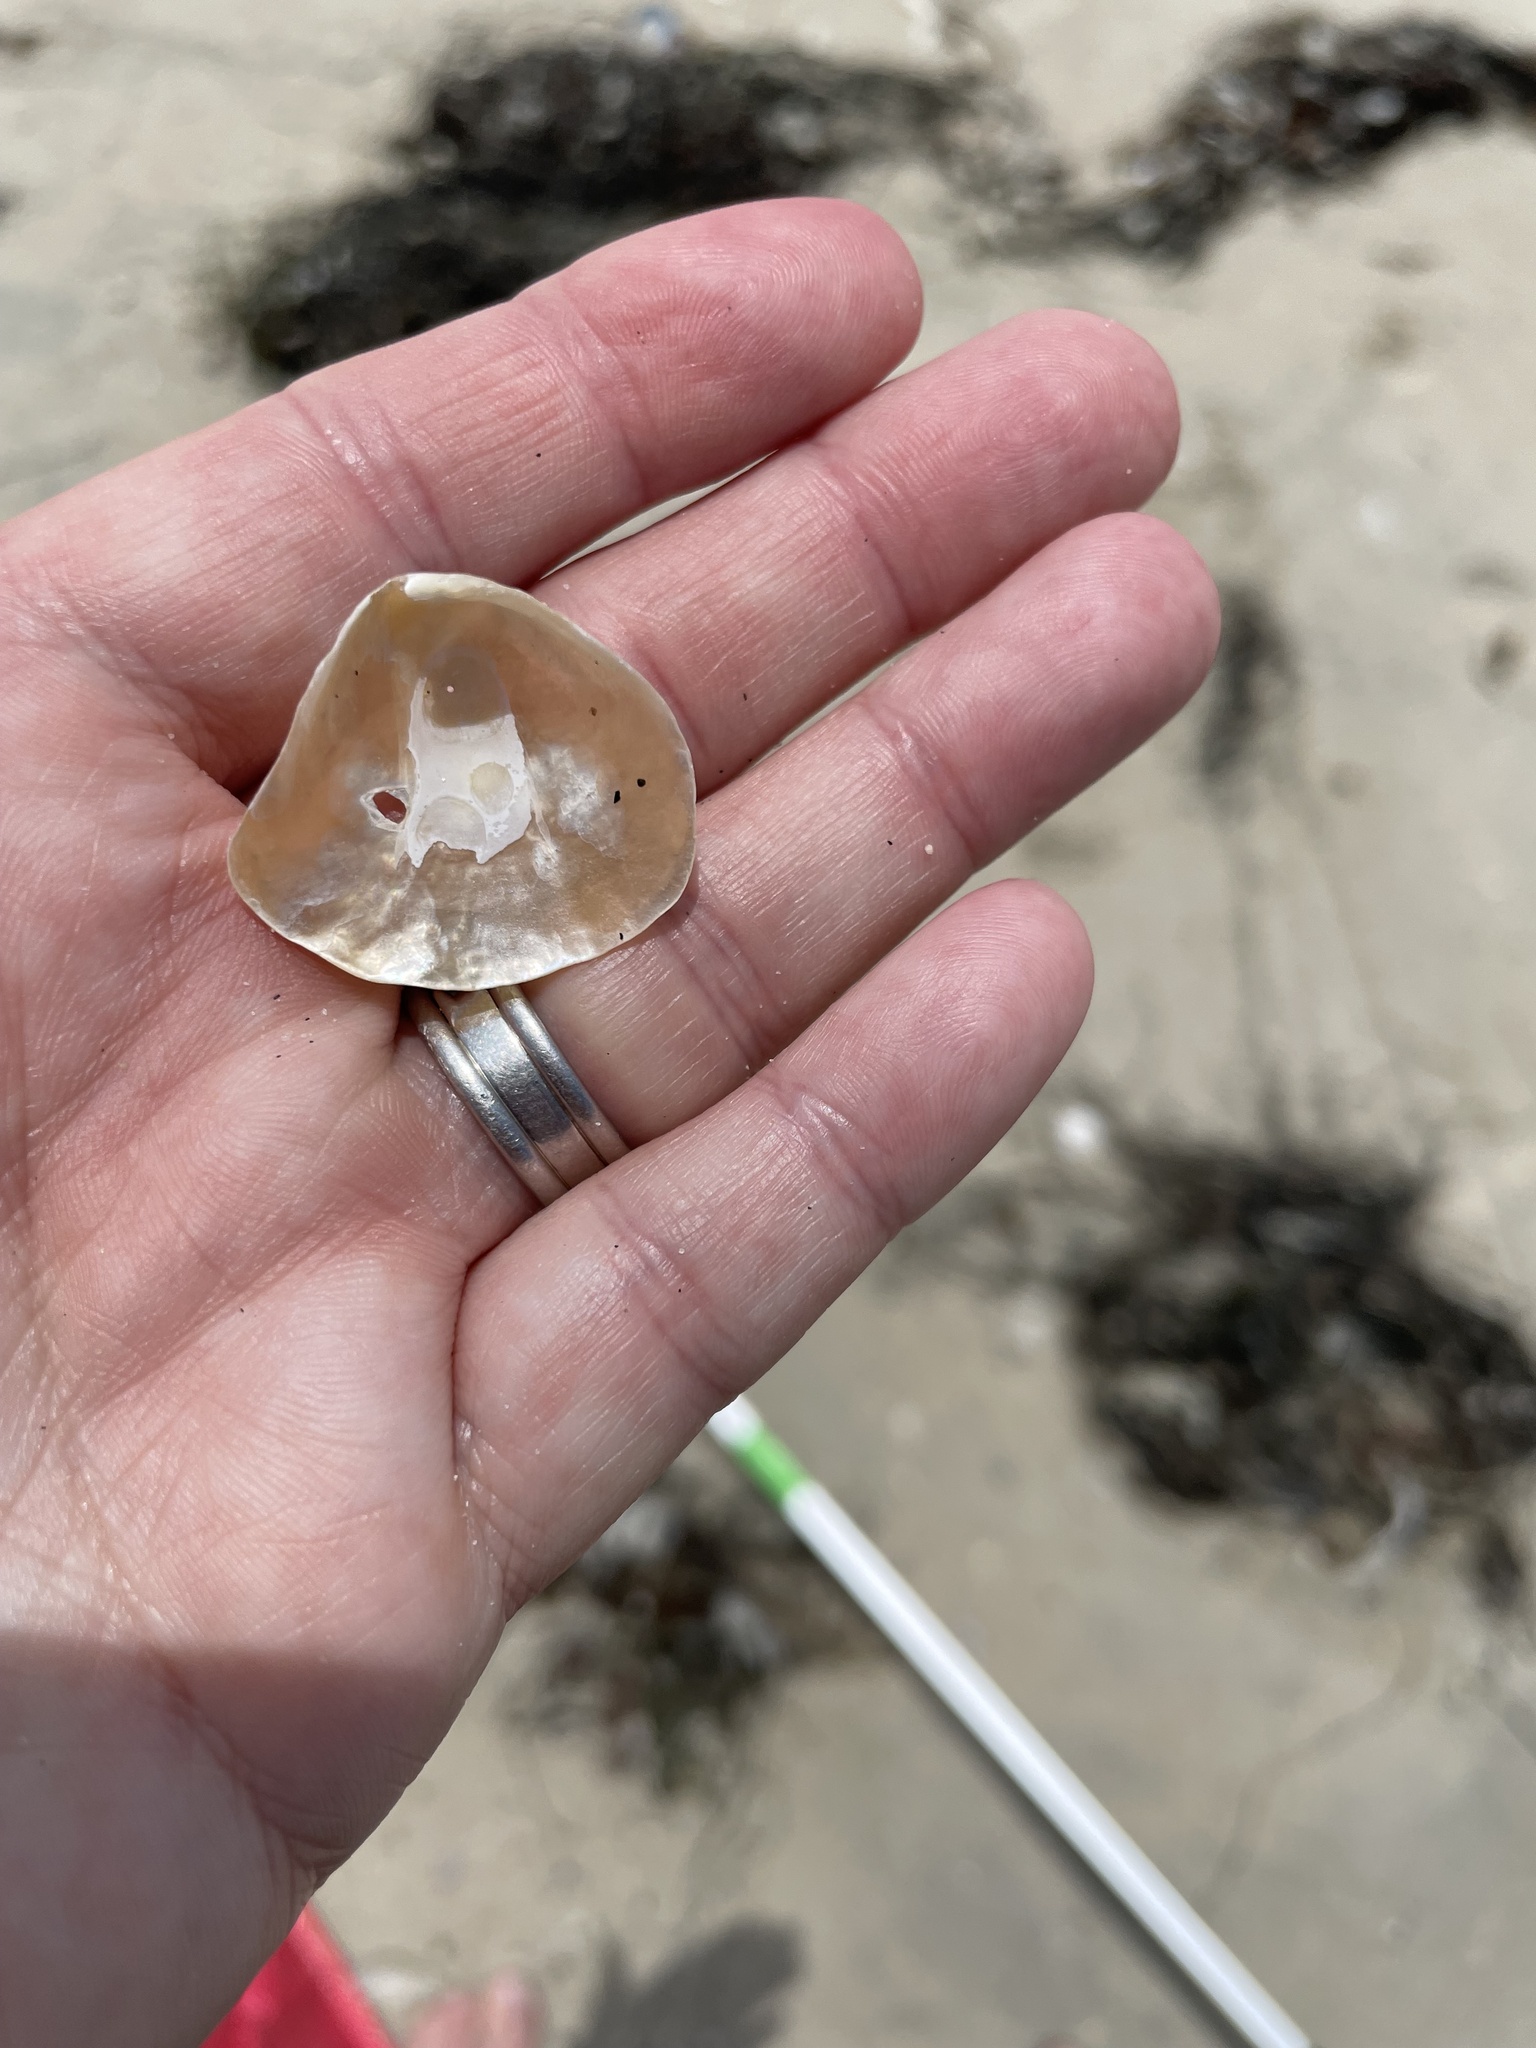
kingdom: Animalia
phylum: Mollusca
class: Bivalvia
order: Pectinida
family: Anomiidae
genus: Anomia
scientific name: Anomia peruviana
